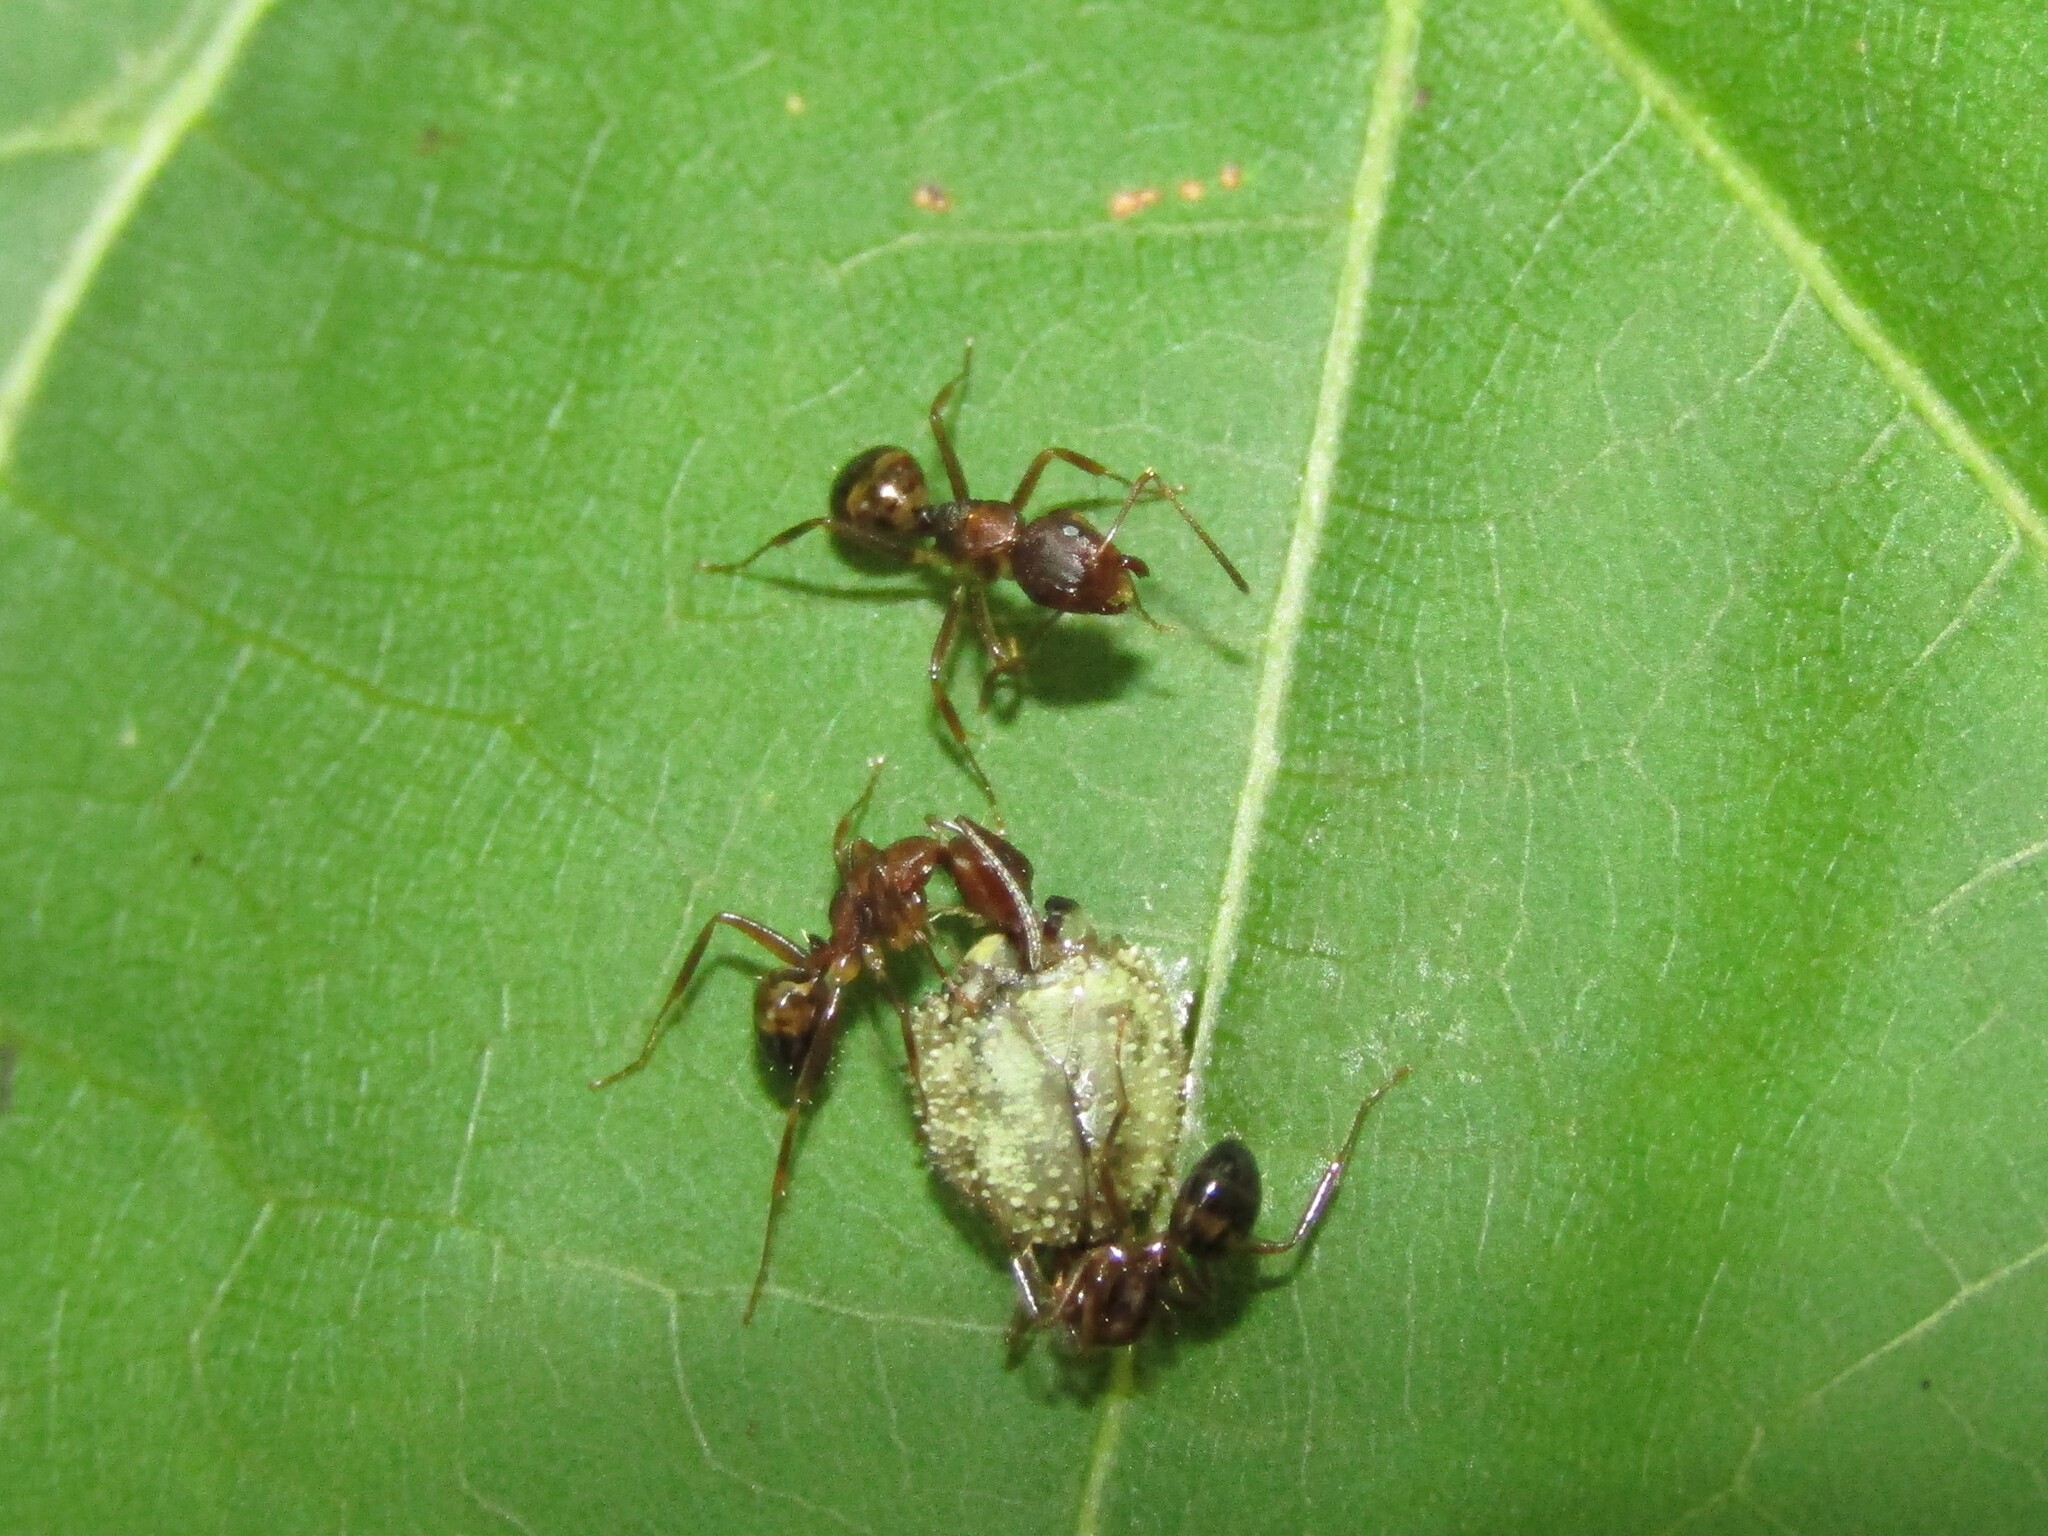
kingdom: Animalia
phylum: Arthropoda
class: Insecta
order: Hymenoptera
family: Formicidae
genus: Camponotus
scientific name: Camponotus subbarbatus
